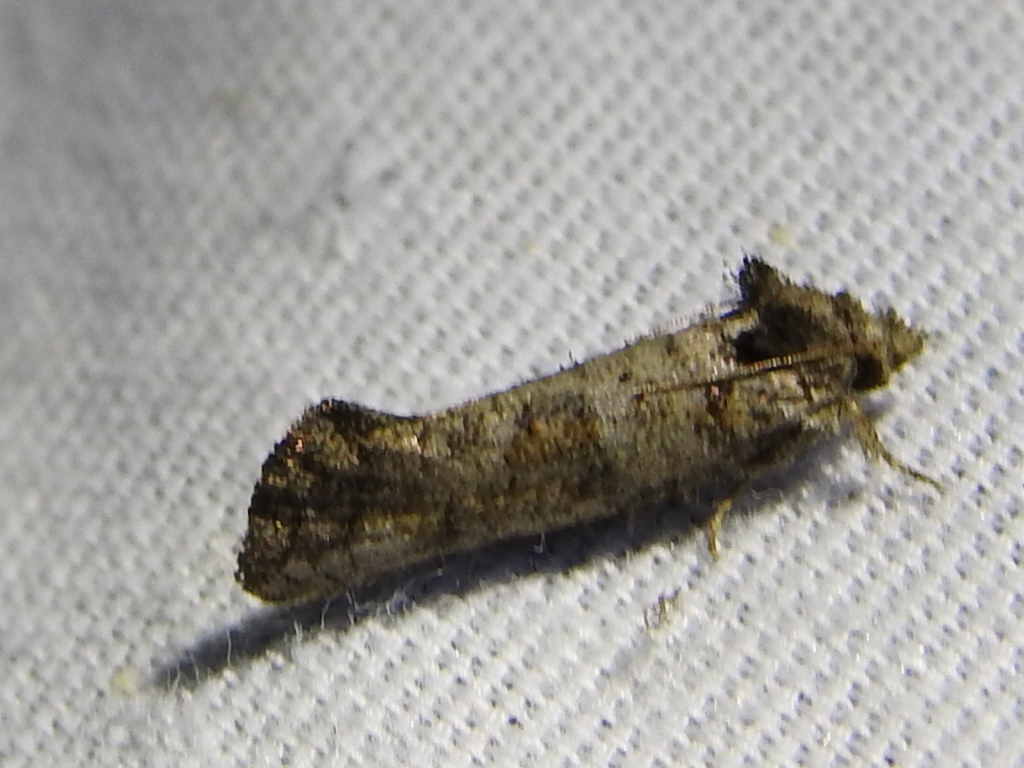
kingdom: Animalia
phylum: Arthropoda
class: Insecta
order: Lepidoptera
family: Tineidae
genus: Acrolophus
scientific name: Acrolophus piger
